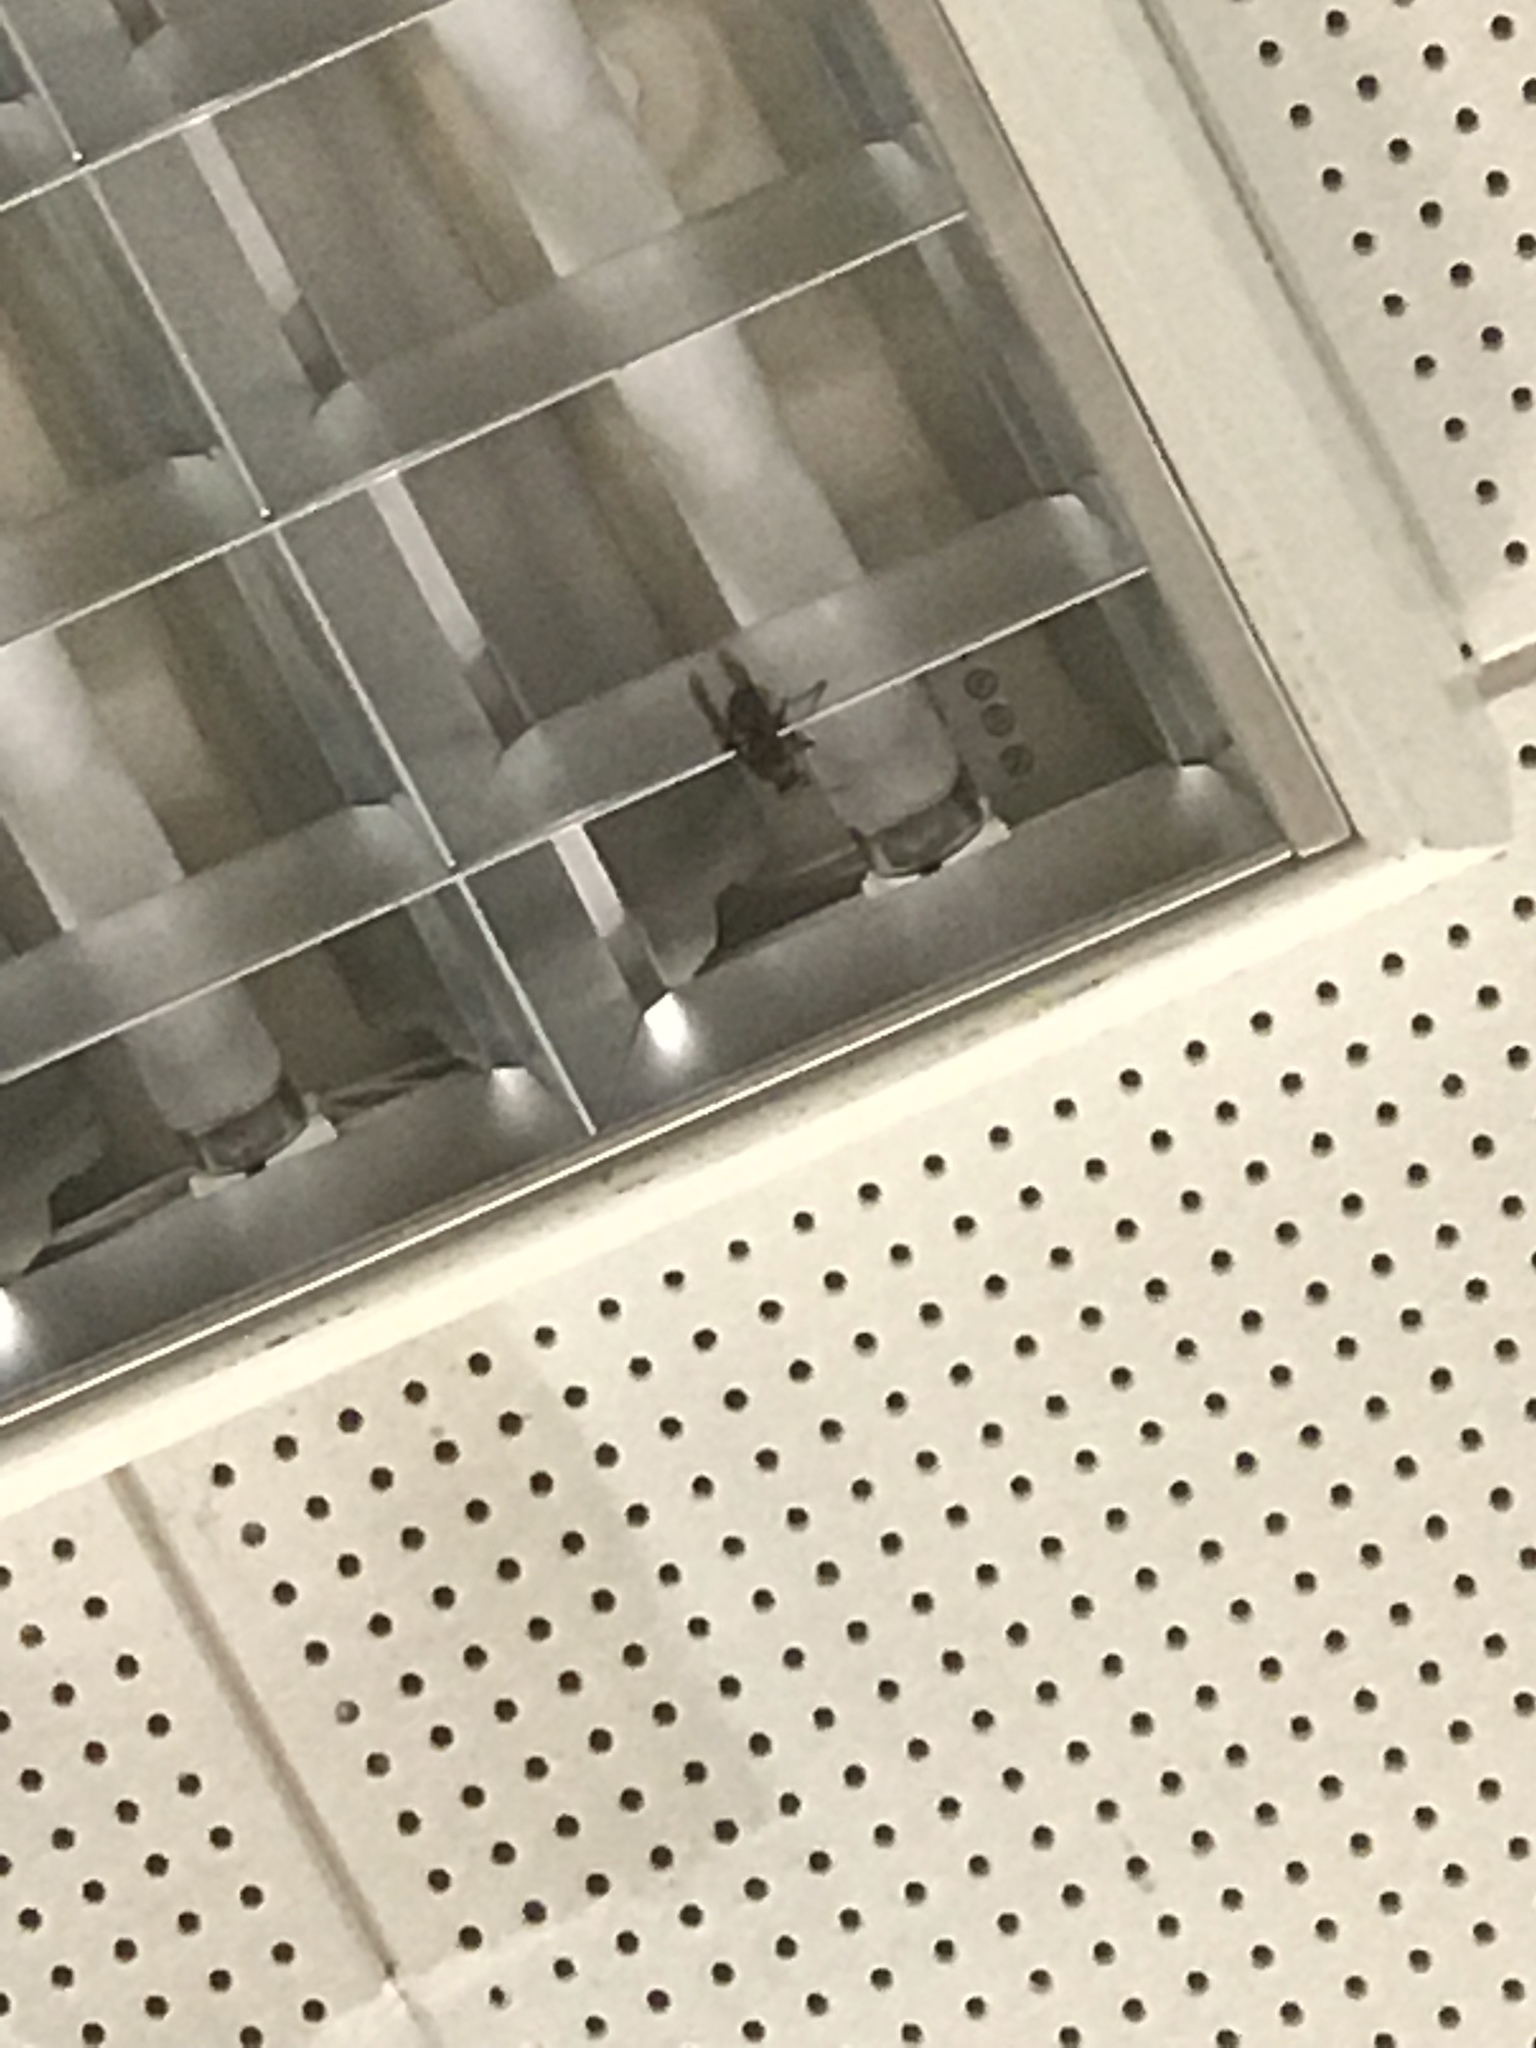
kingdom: Animalia
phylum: Arthropoda
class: Insecta
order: Hymenoptera
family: Vespidae
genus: Vespa
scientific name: Vespa crabro
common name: Hornet
